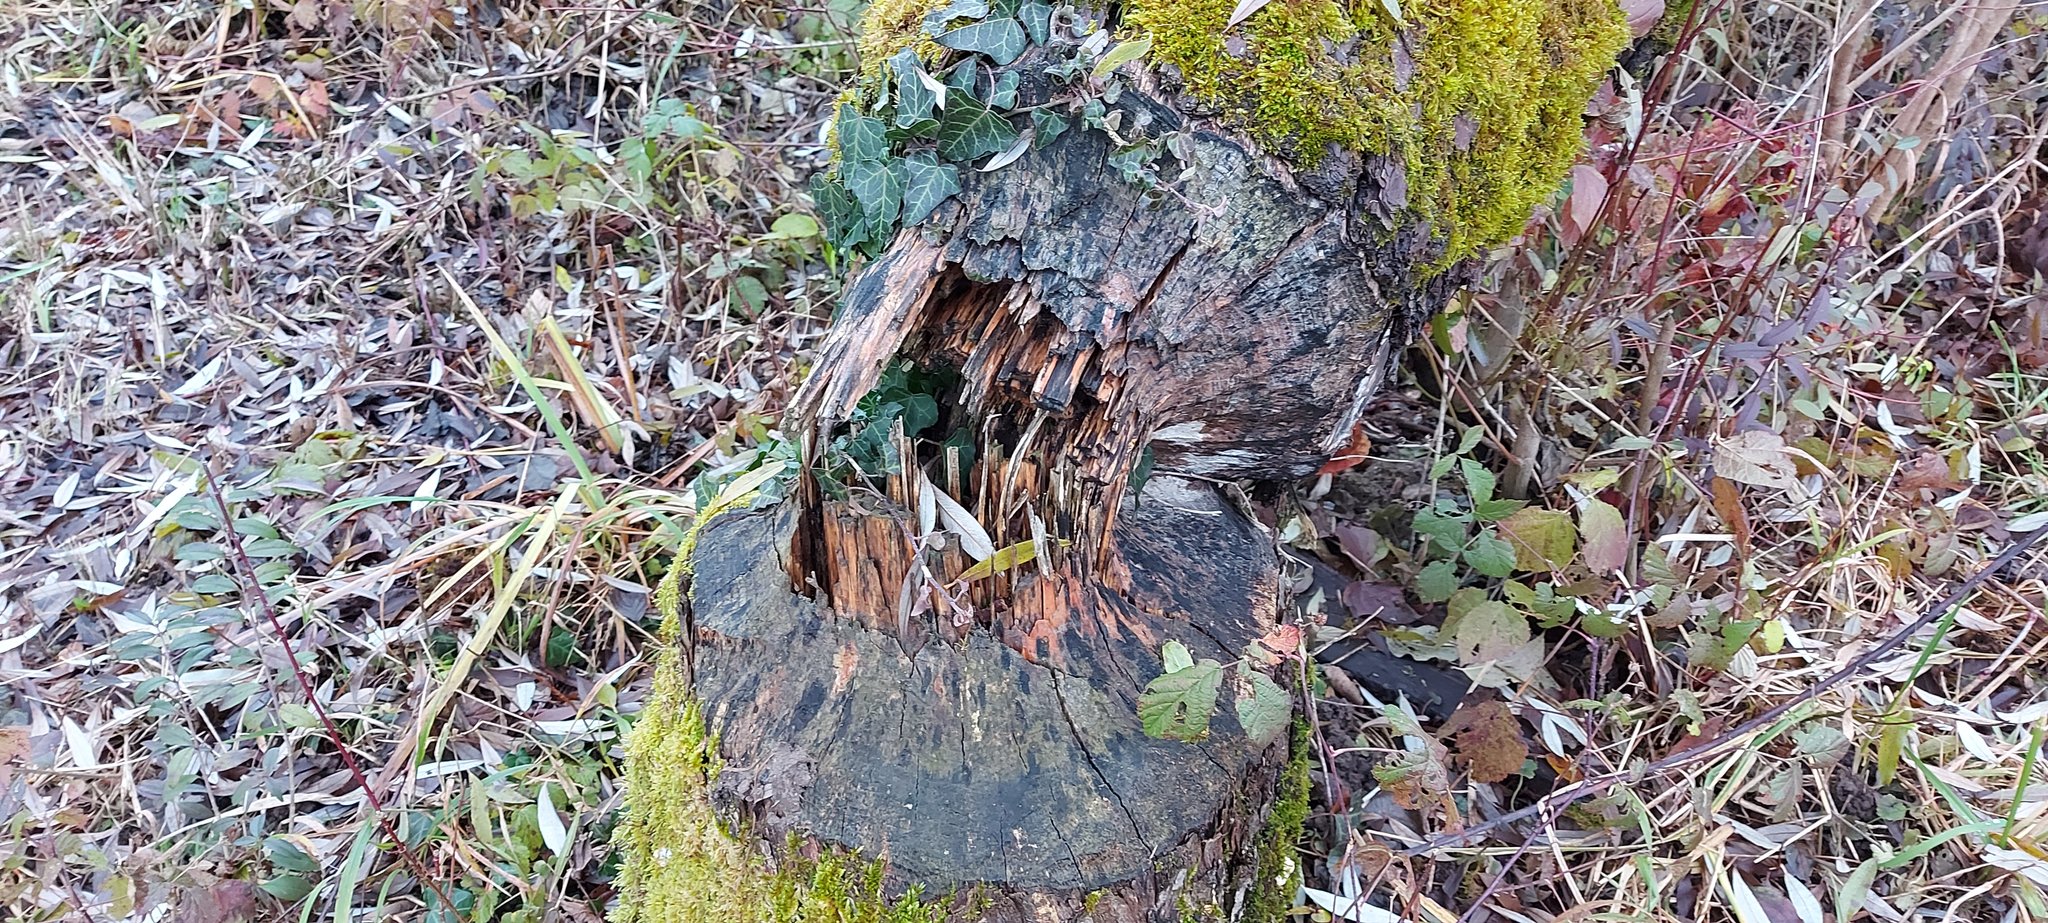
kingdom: Animalia
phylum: Chordata
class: Mammalia
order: Rodentia
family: Castoridae
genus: Castor
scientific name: Castor fiber
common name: Eurasian beaver
